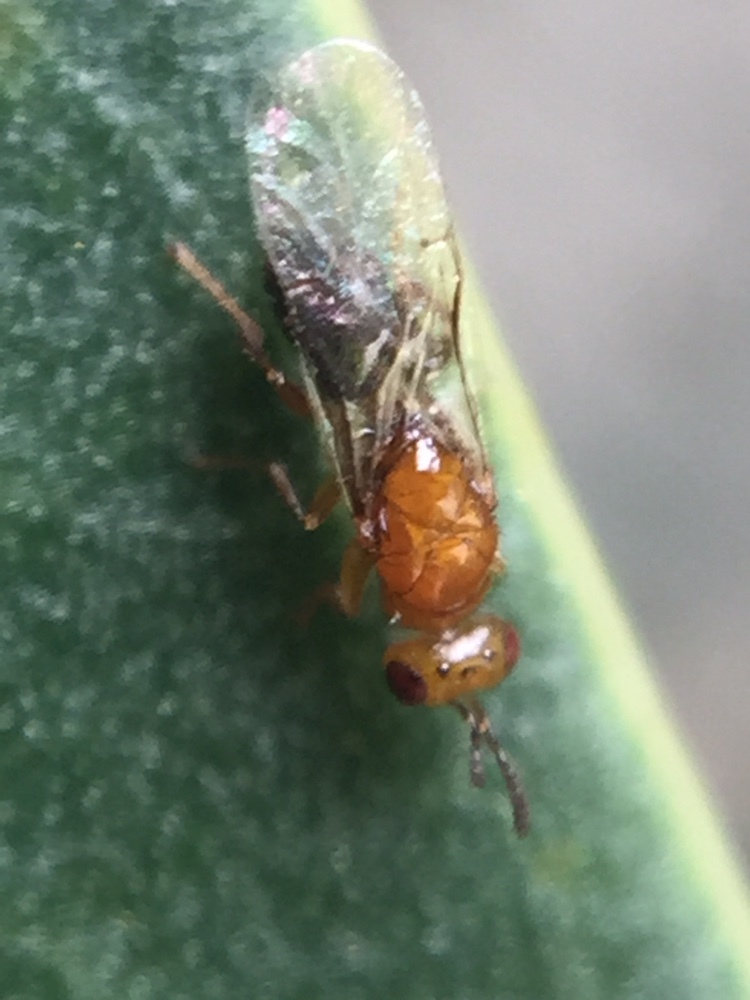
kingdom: Animalia
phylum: Arthropoda
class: Insecta
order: Hymenoptera
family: Agaonidae
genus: Herodotia
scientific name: Herodotia subatriventris
